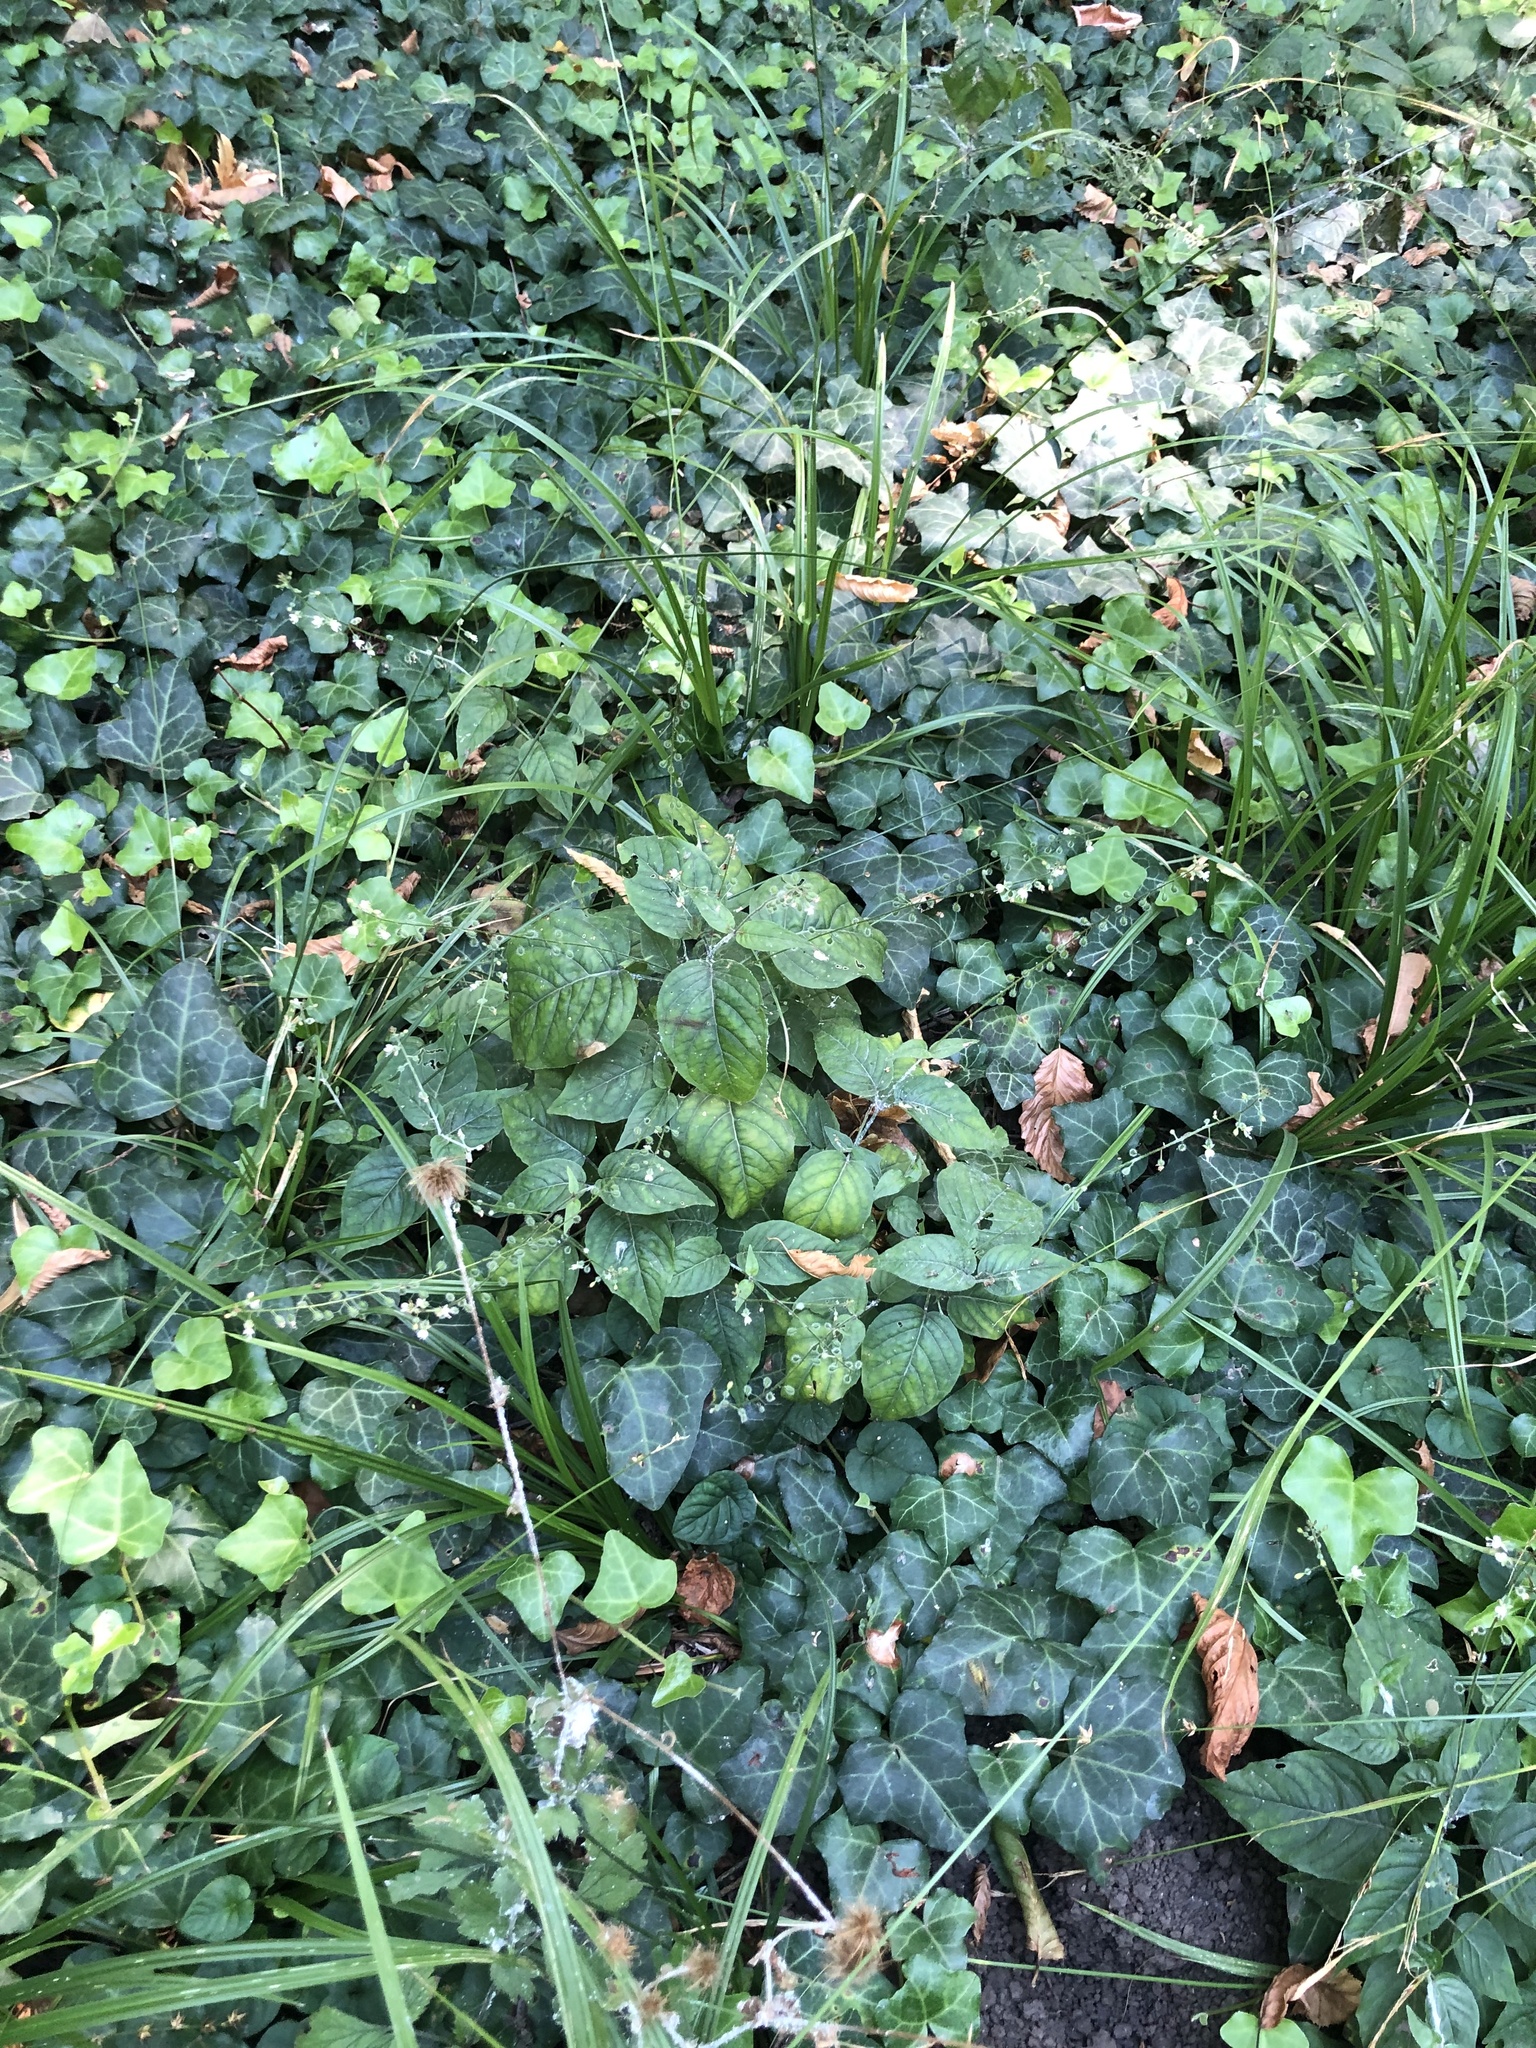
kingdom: Plantae
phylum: Tracheophyta
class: Magnoliopsida
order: Myrtales
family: Onagraceae
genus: Circaea
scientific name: Circaea lutetiana
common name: Enchanter's-nightshade
